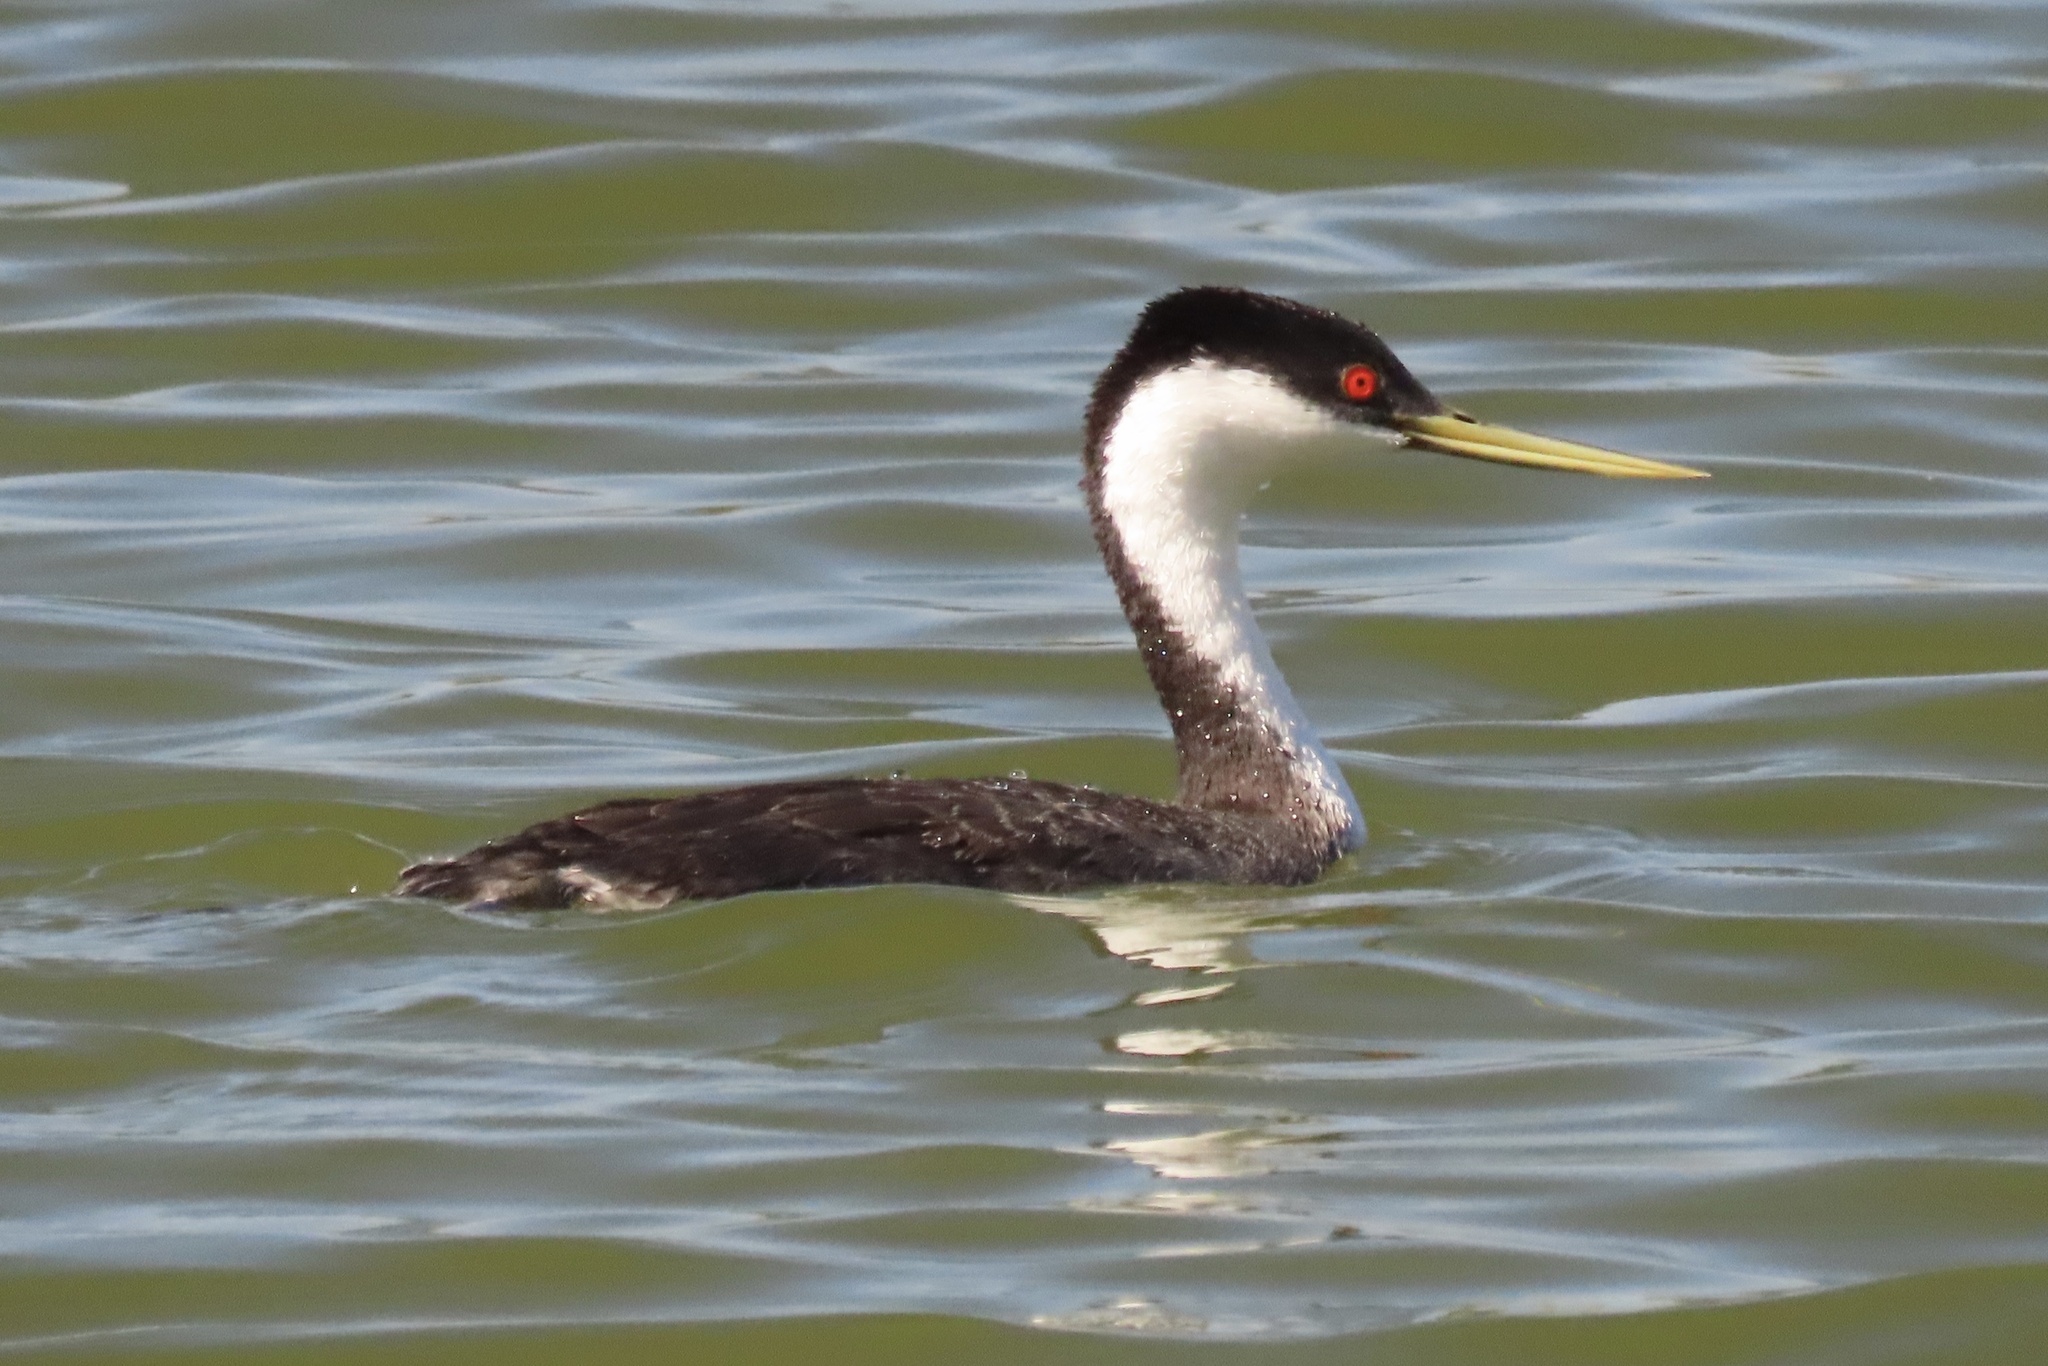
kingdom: Animalia
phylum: Chordata
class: Aves
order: Podicipediformes
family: Podicipedidae
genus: Aechmophorus
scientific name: Aechmophorus occidentalis
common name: Western grebe
